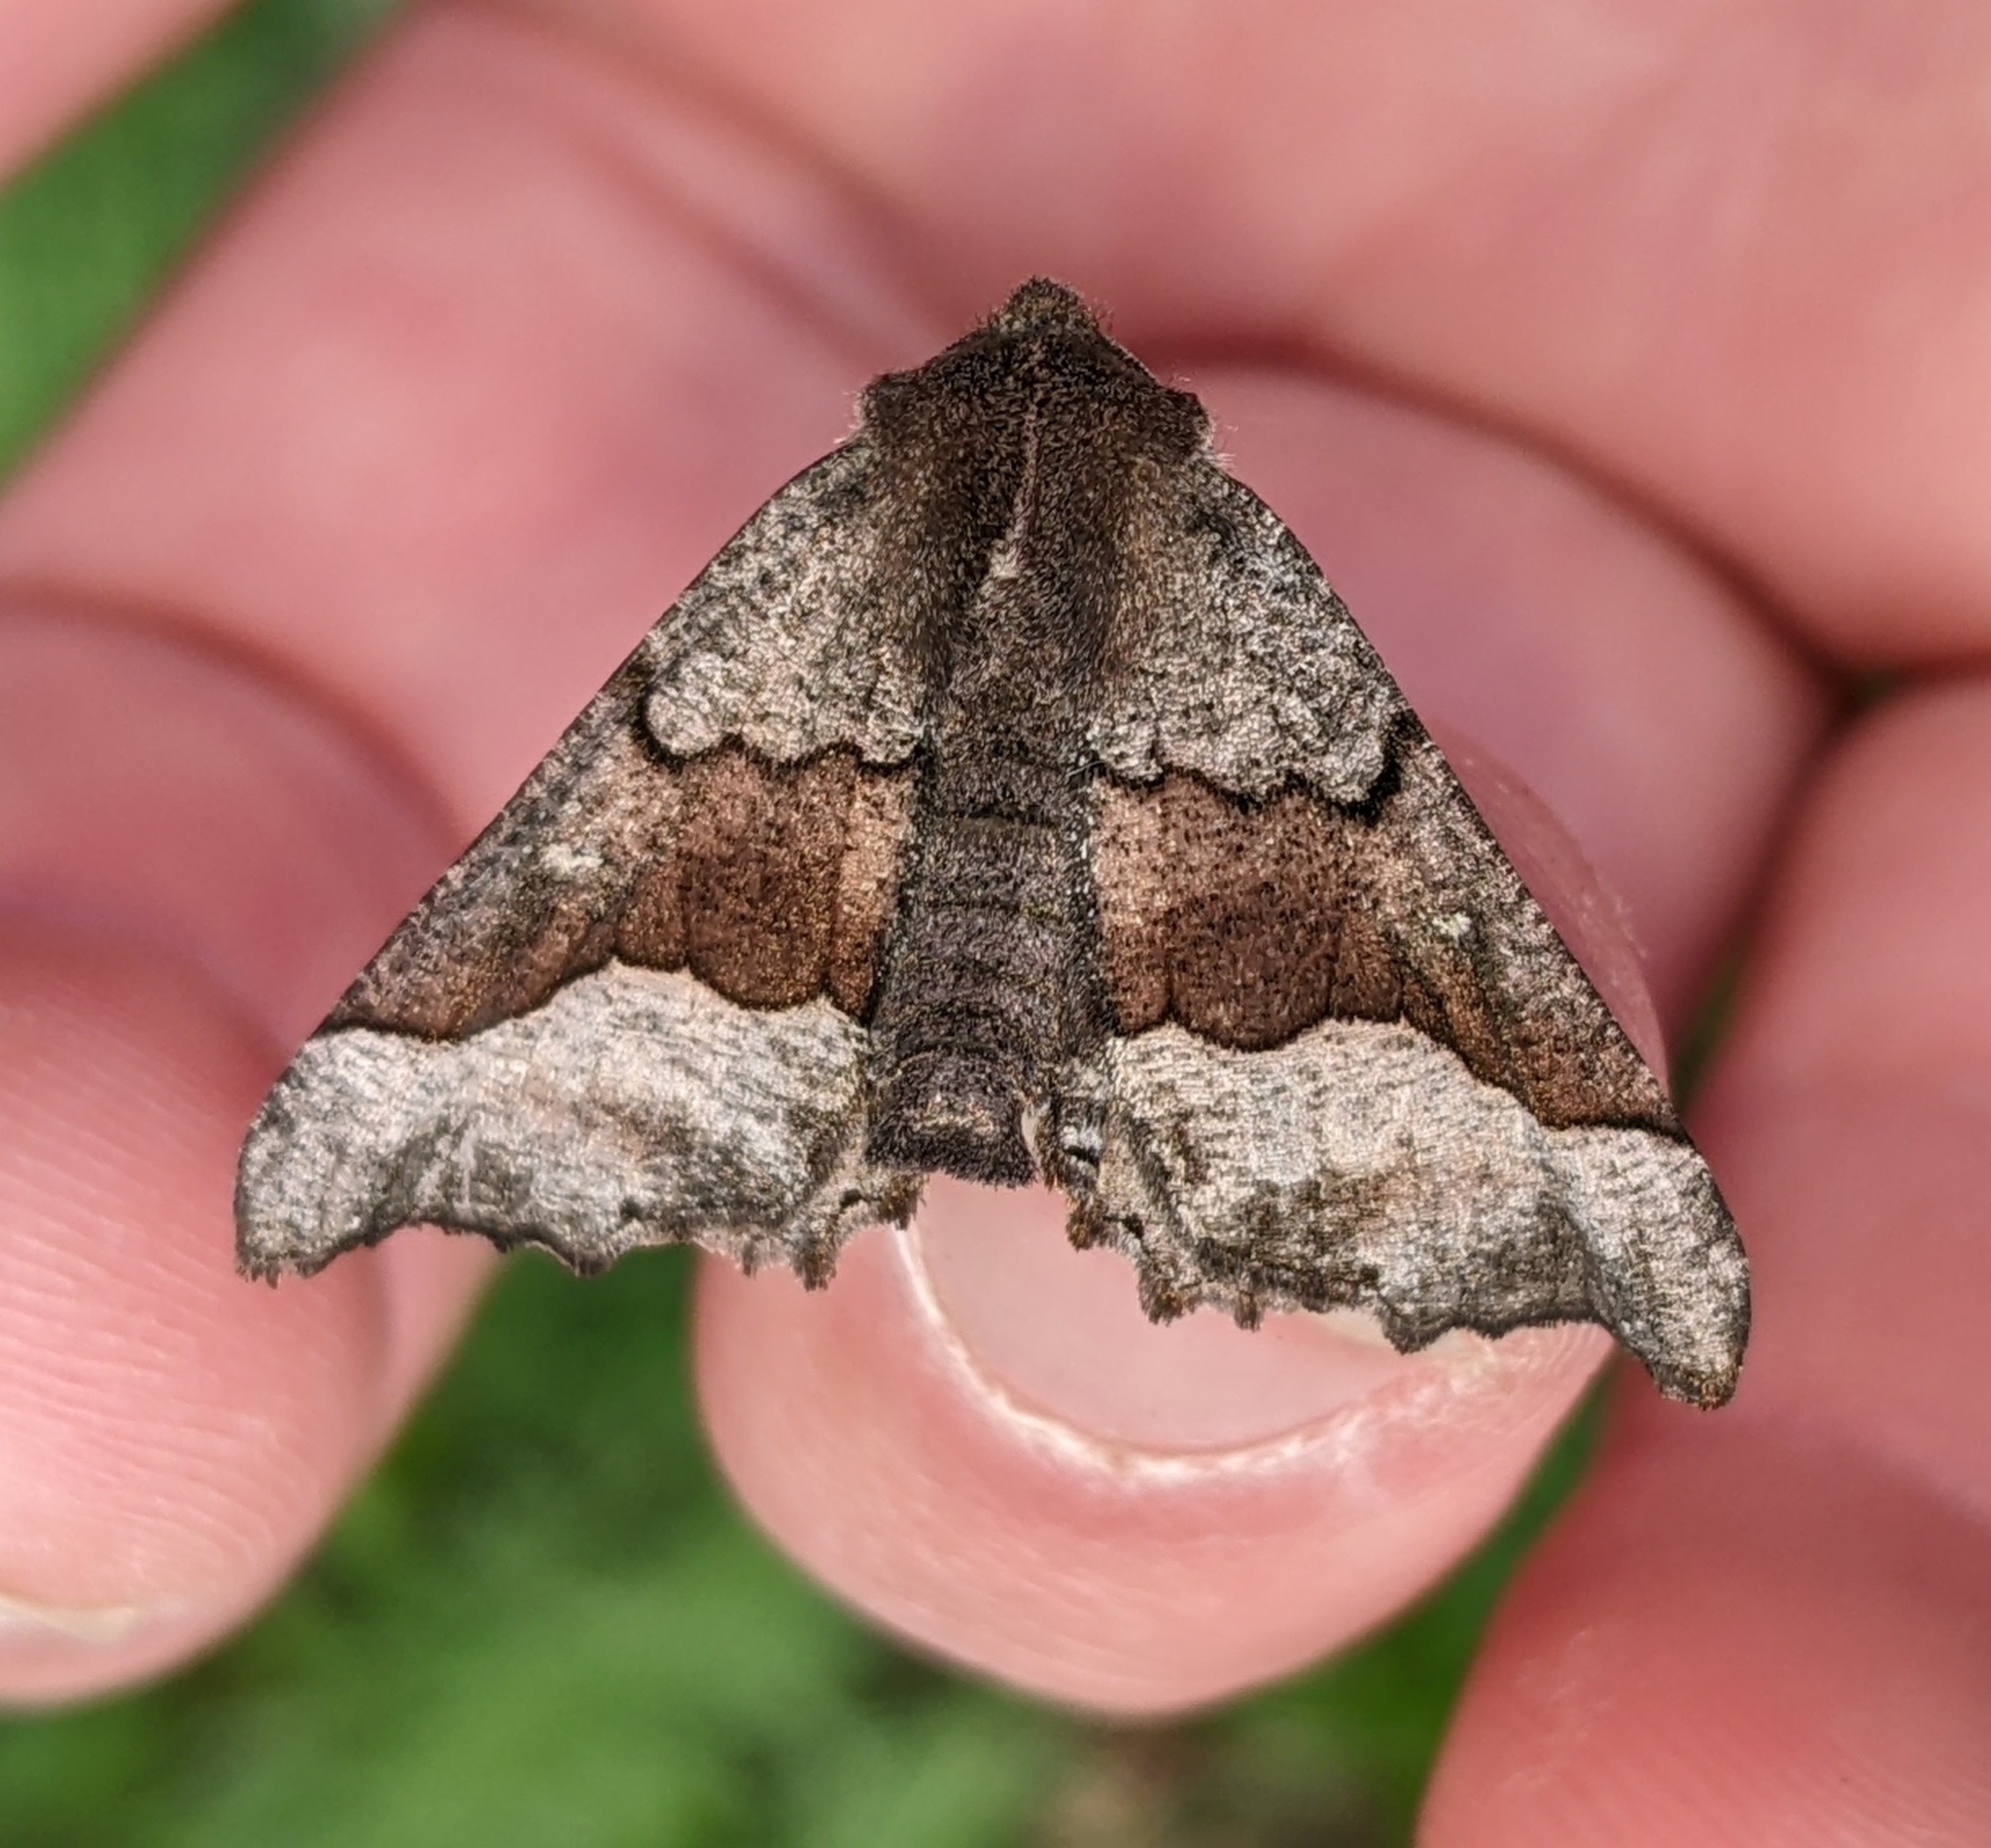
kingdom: Animalia
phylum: Arthropoda
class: Insecta
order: Lepidoptera
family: Geometridae
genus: Pero
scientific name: Pero behrensaria
